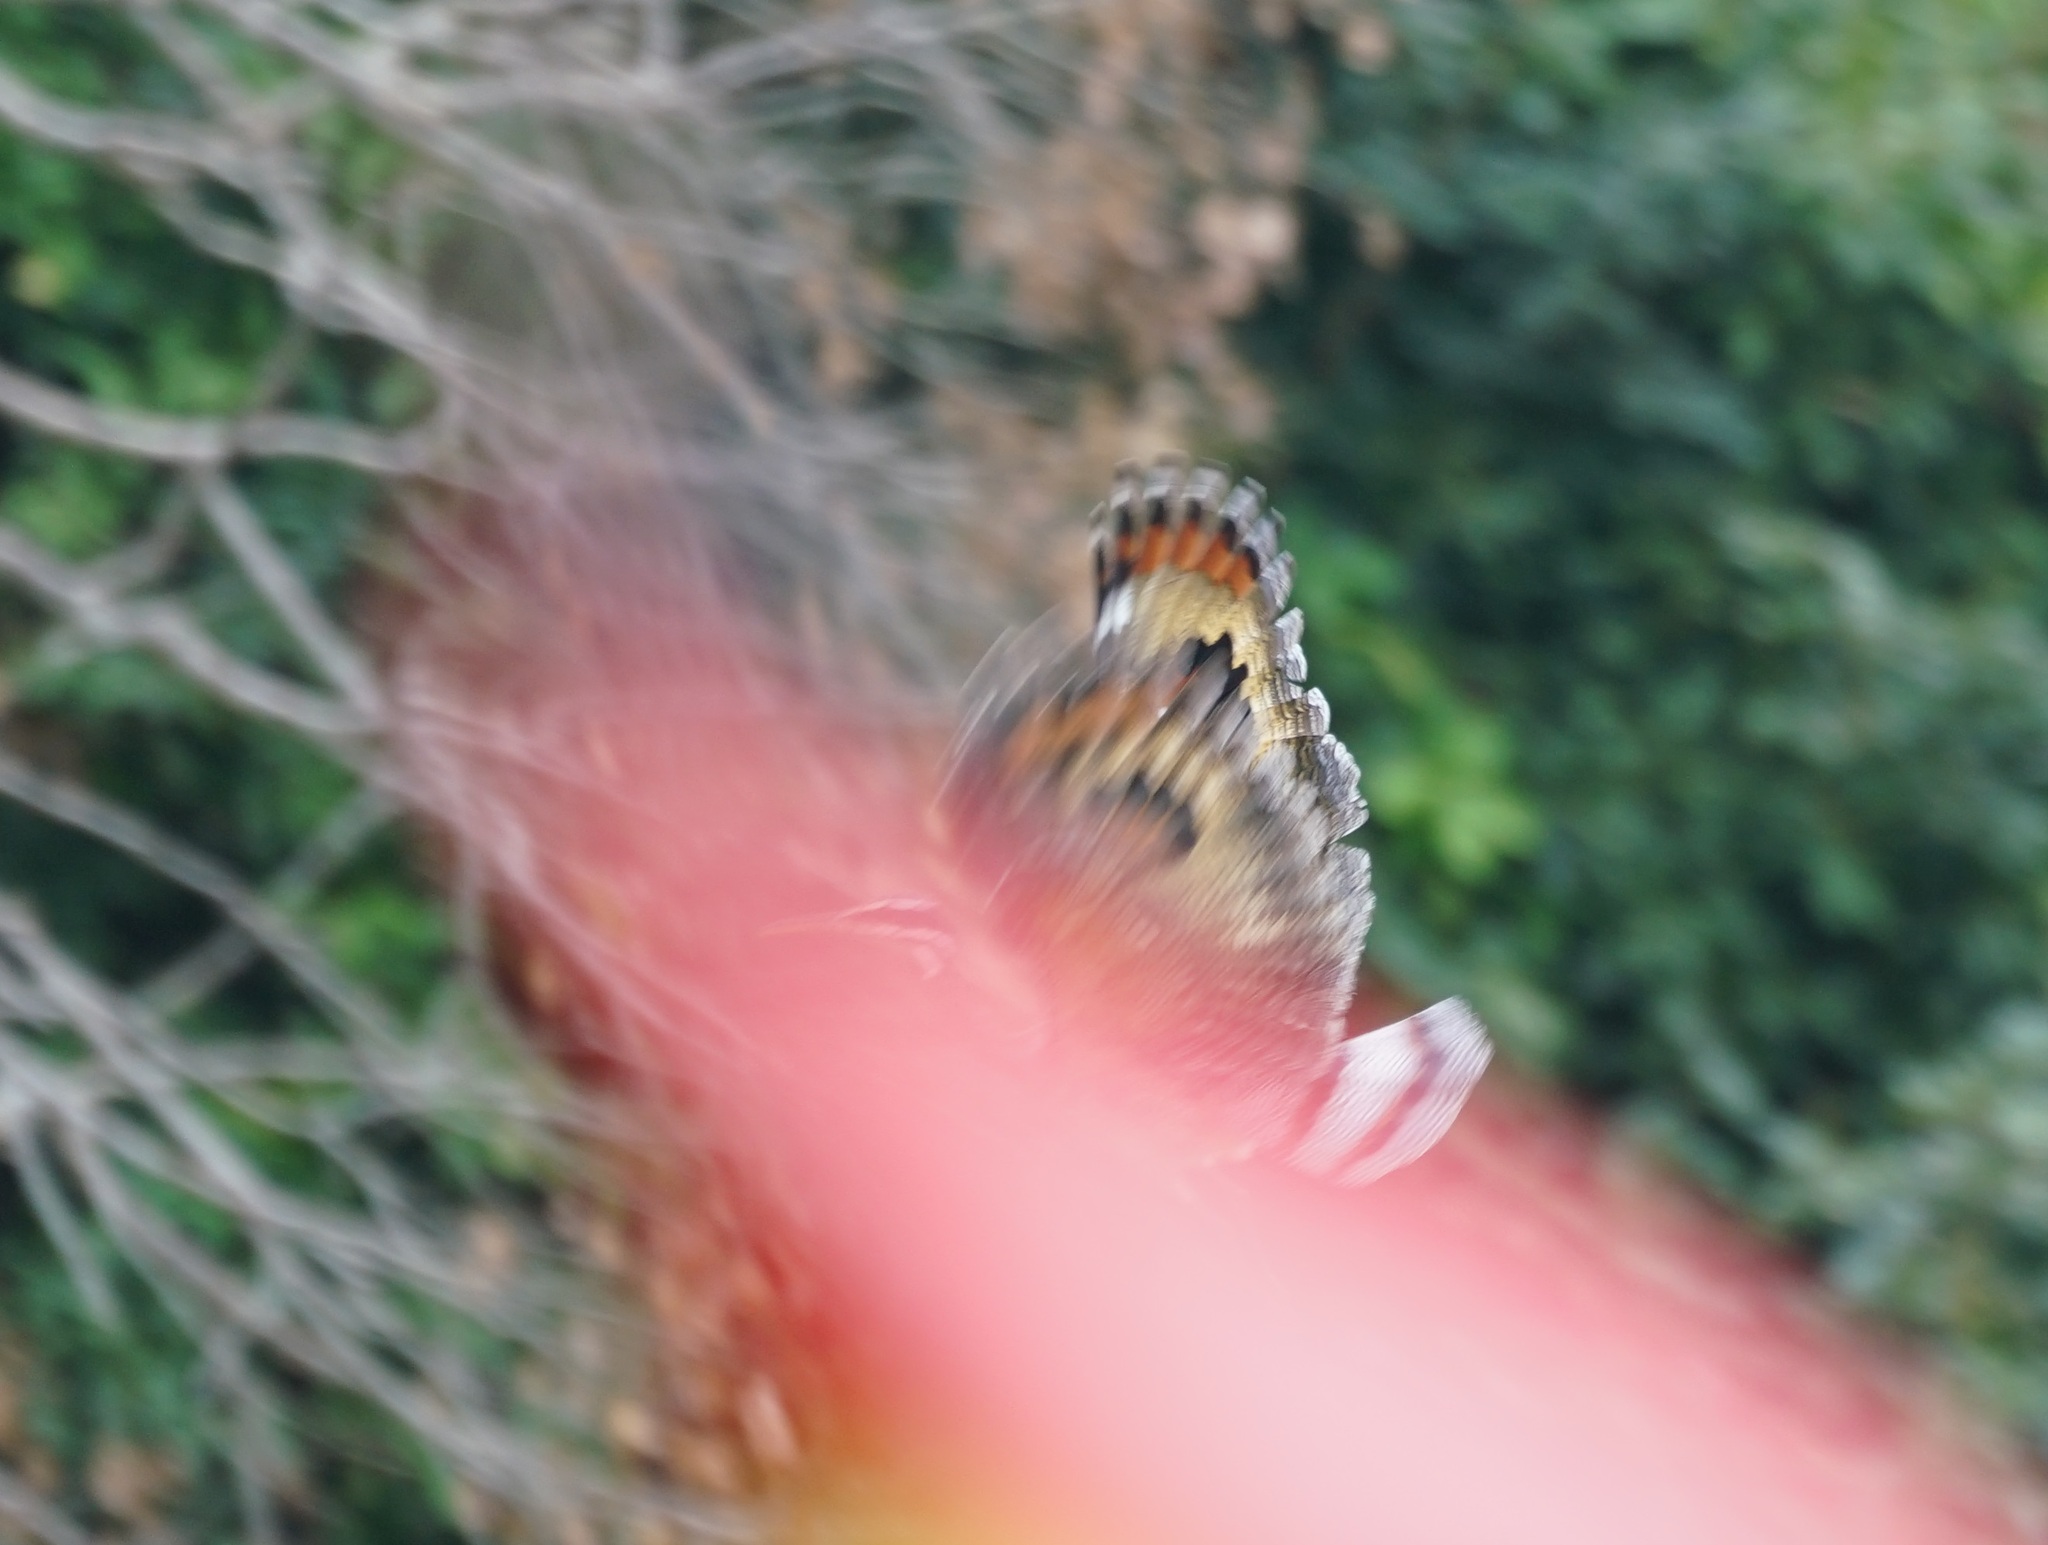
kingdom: Animalia
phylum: Chordata
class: Aves
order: Eurypygiformes
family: Eurypygidae
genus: Eurypyga
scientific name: Eurypyga helias
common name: Sunbittern
